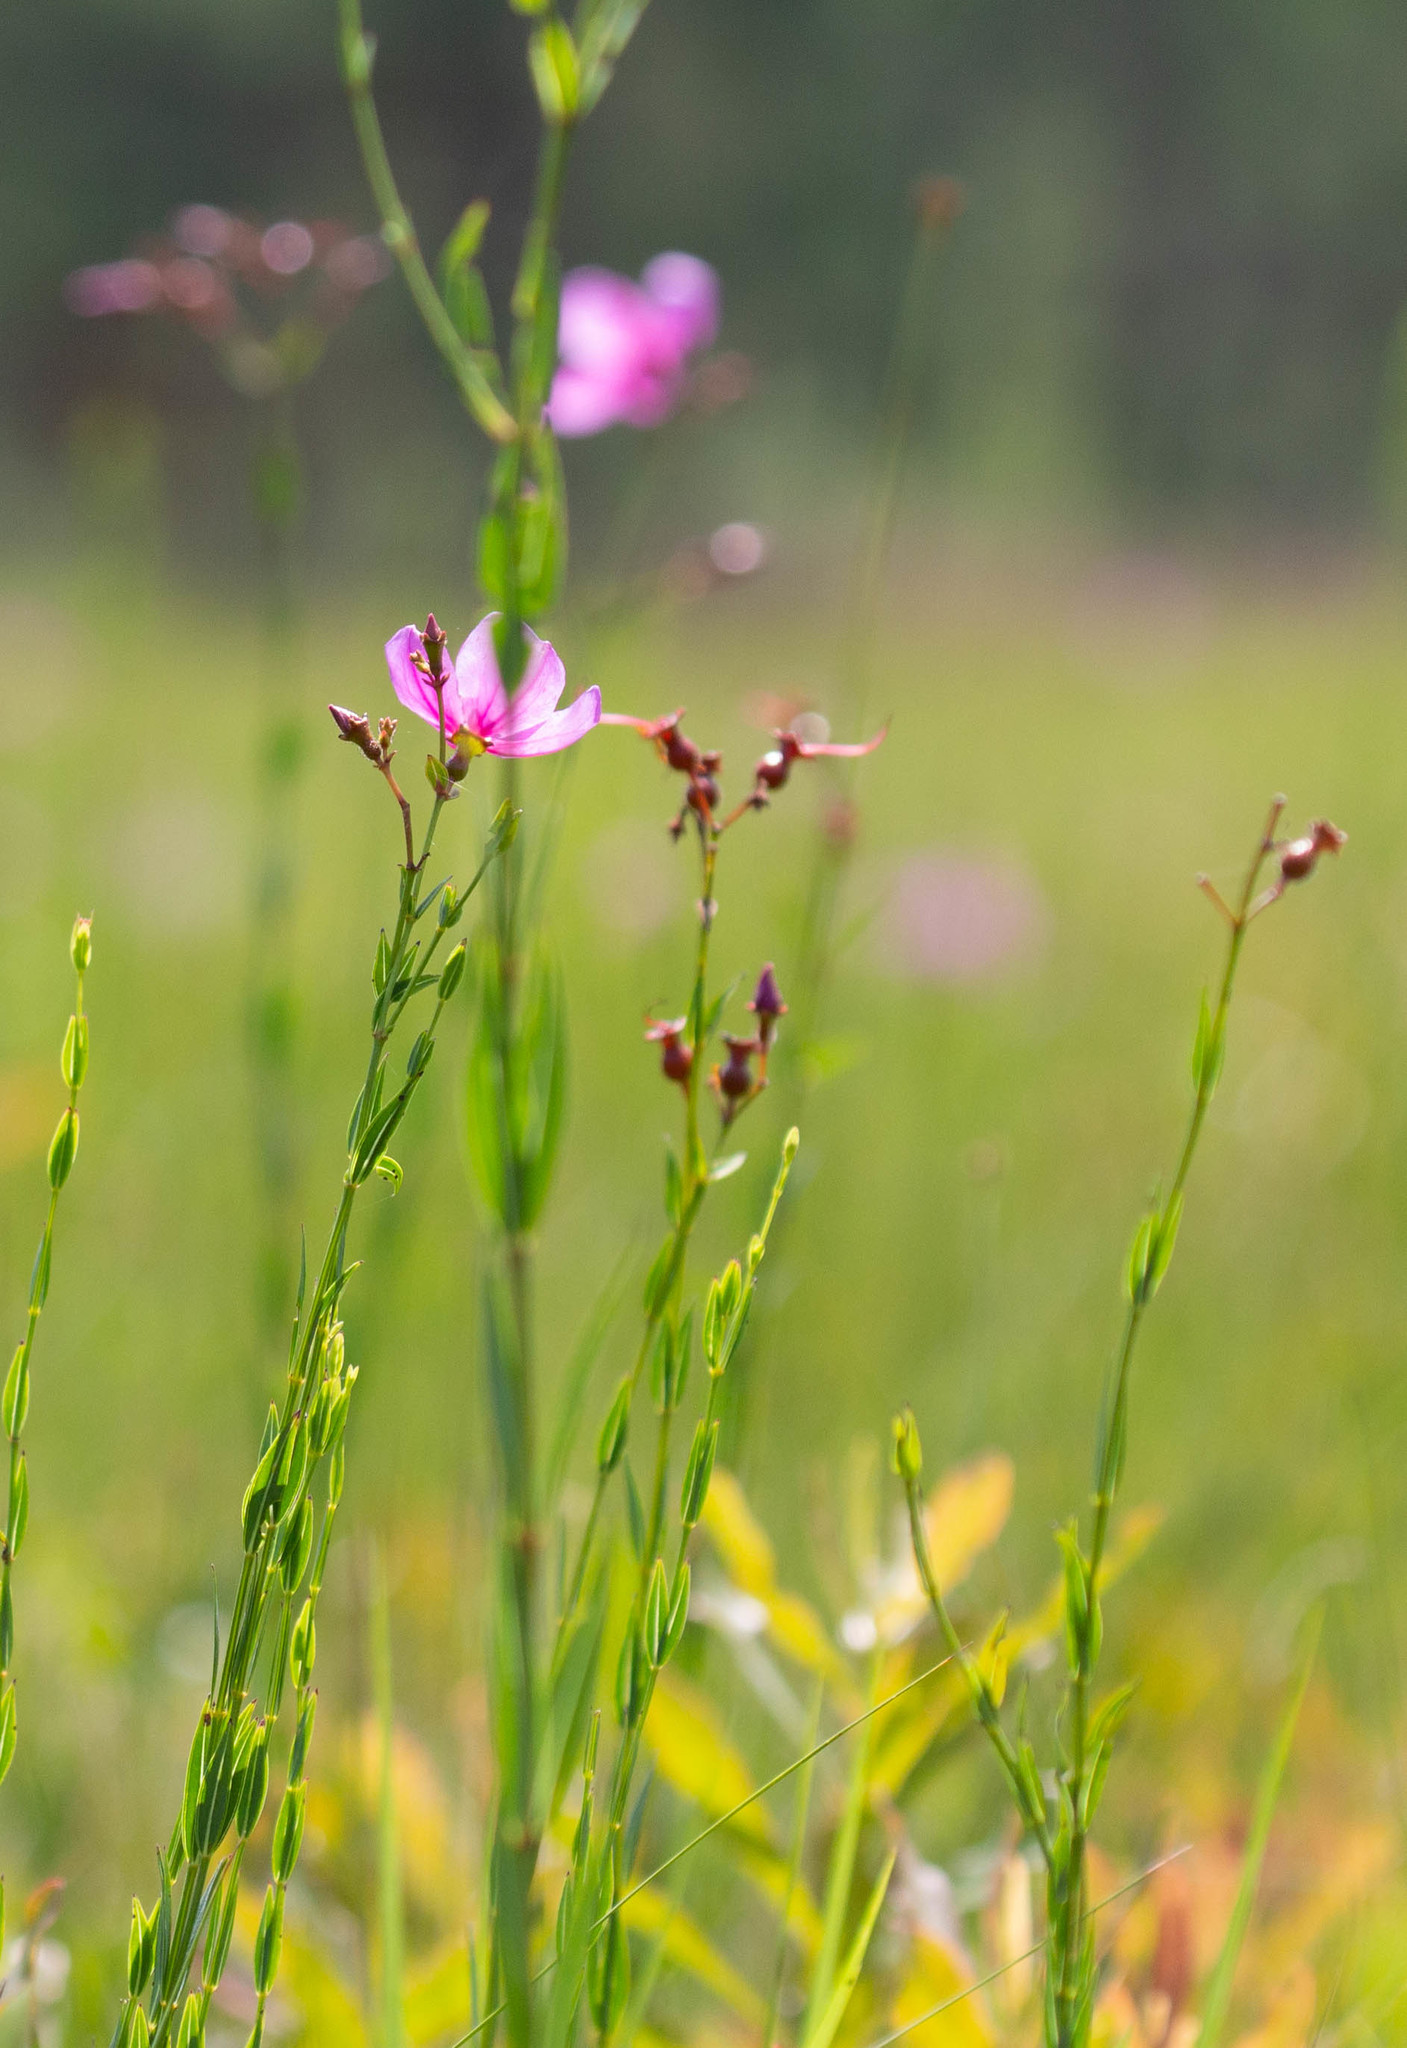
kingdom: Plantae
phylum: Tracheophyta
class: Magnoliopsida
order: Myrtales
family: Melastomataceae
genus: Rhexia
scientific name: Rhexia alifanus
